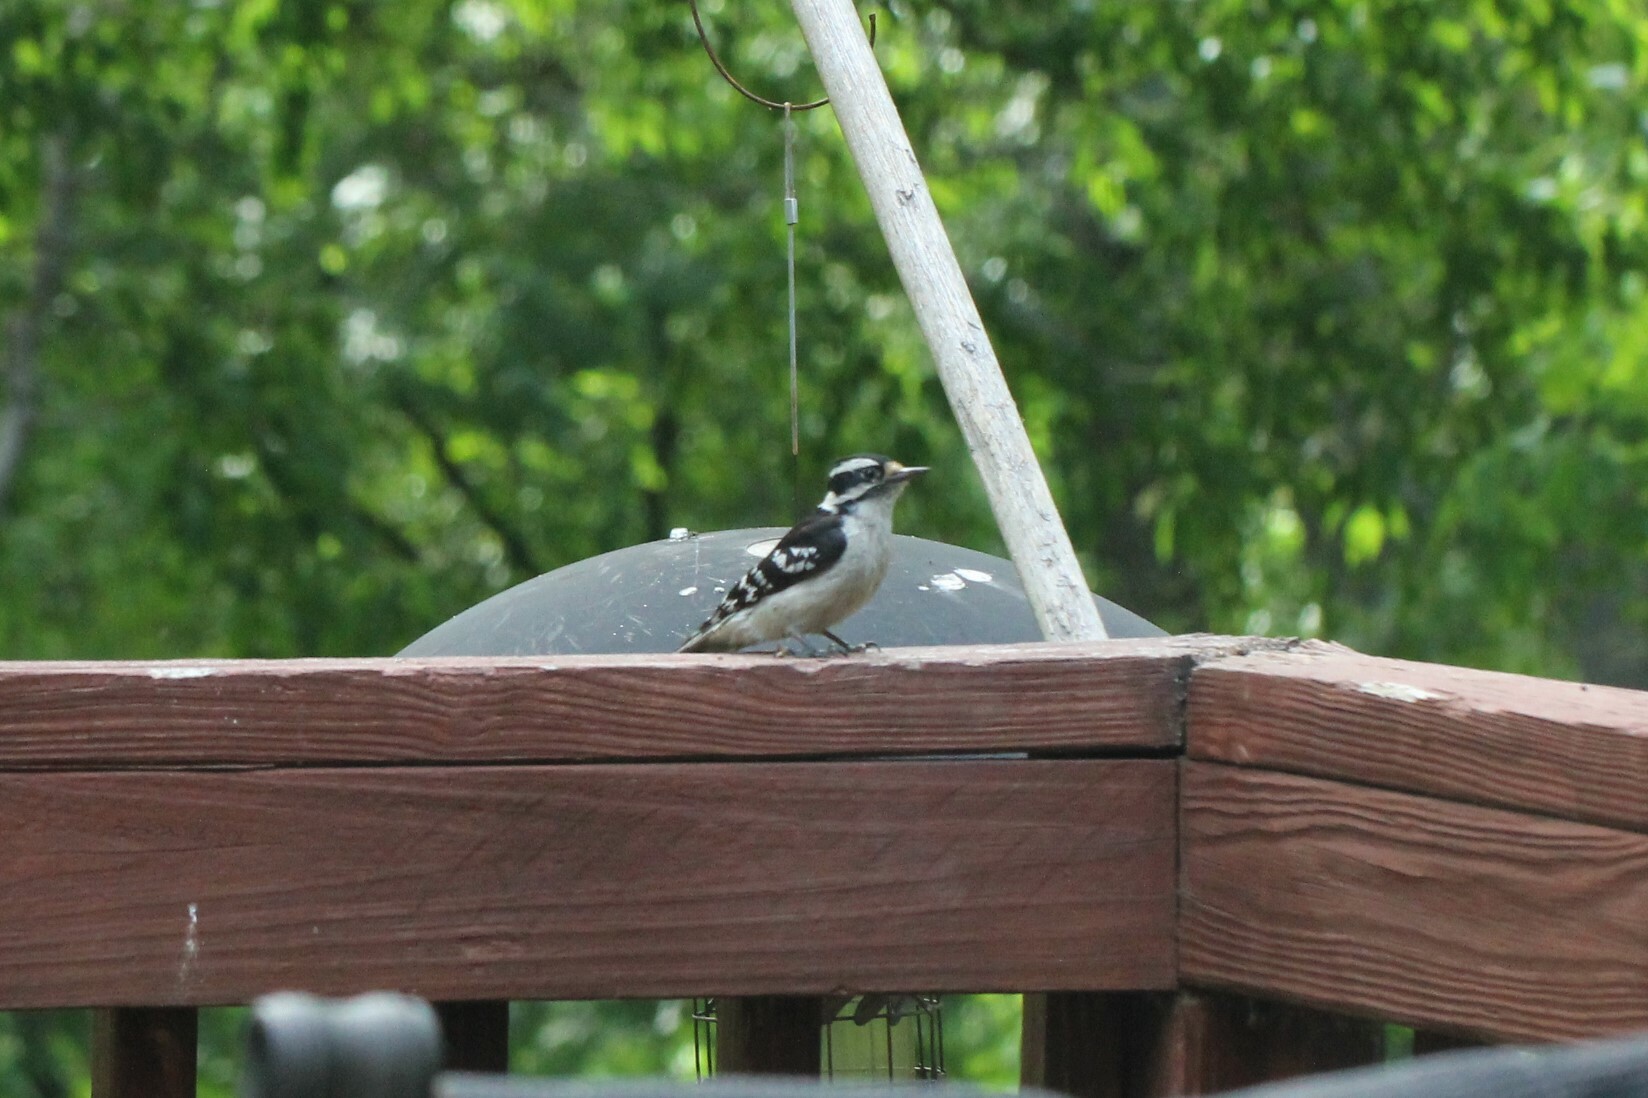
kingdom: Animalia
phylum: Chordata
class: Aves
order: Piciformes
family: Picidae
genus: Dryobates
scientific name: Dryobates pubescens
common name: Downy woodpecker
